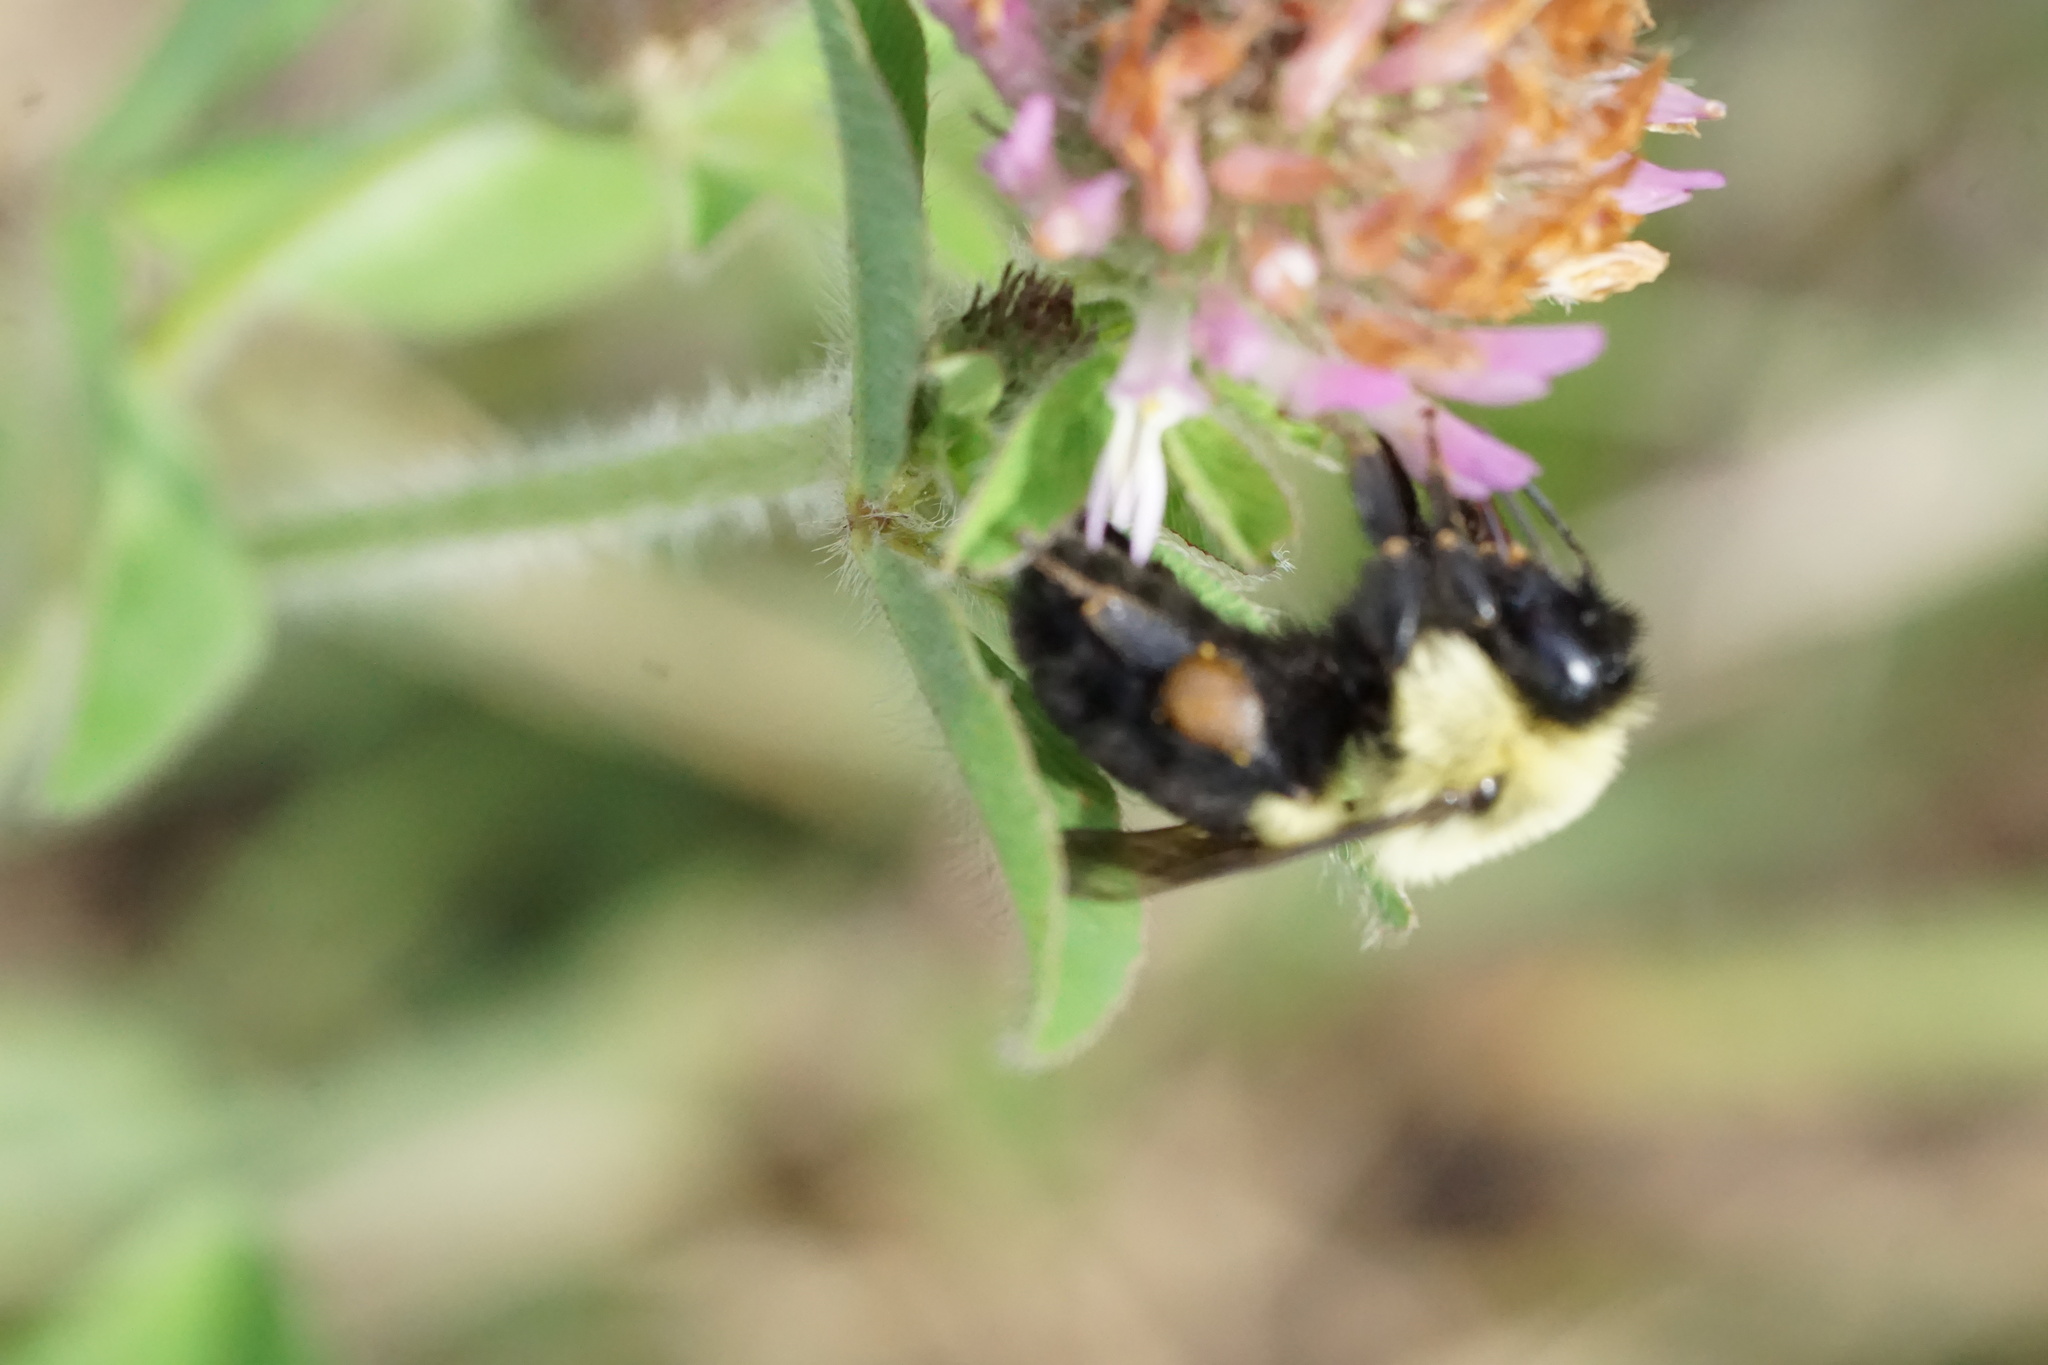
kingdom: Animalia
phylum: Arthropoda
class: Insecta
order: Hymenoptera
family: Apidae
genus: Bombus
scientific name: Bombus impatiens
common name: Common eastern bumble bee
